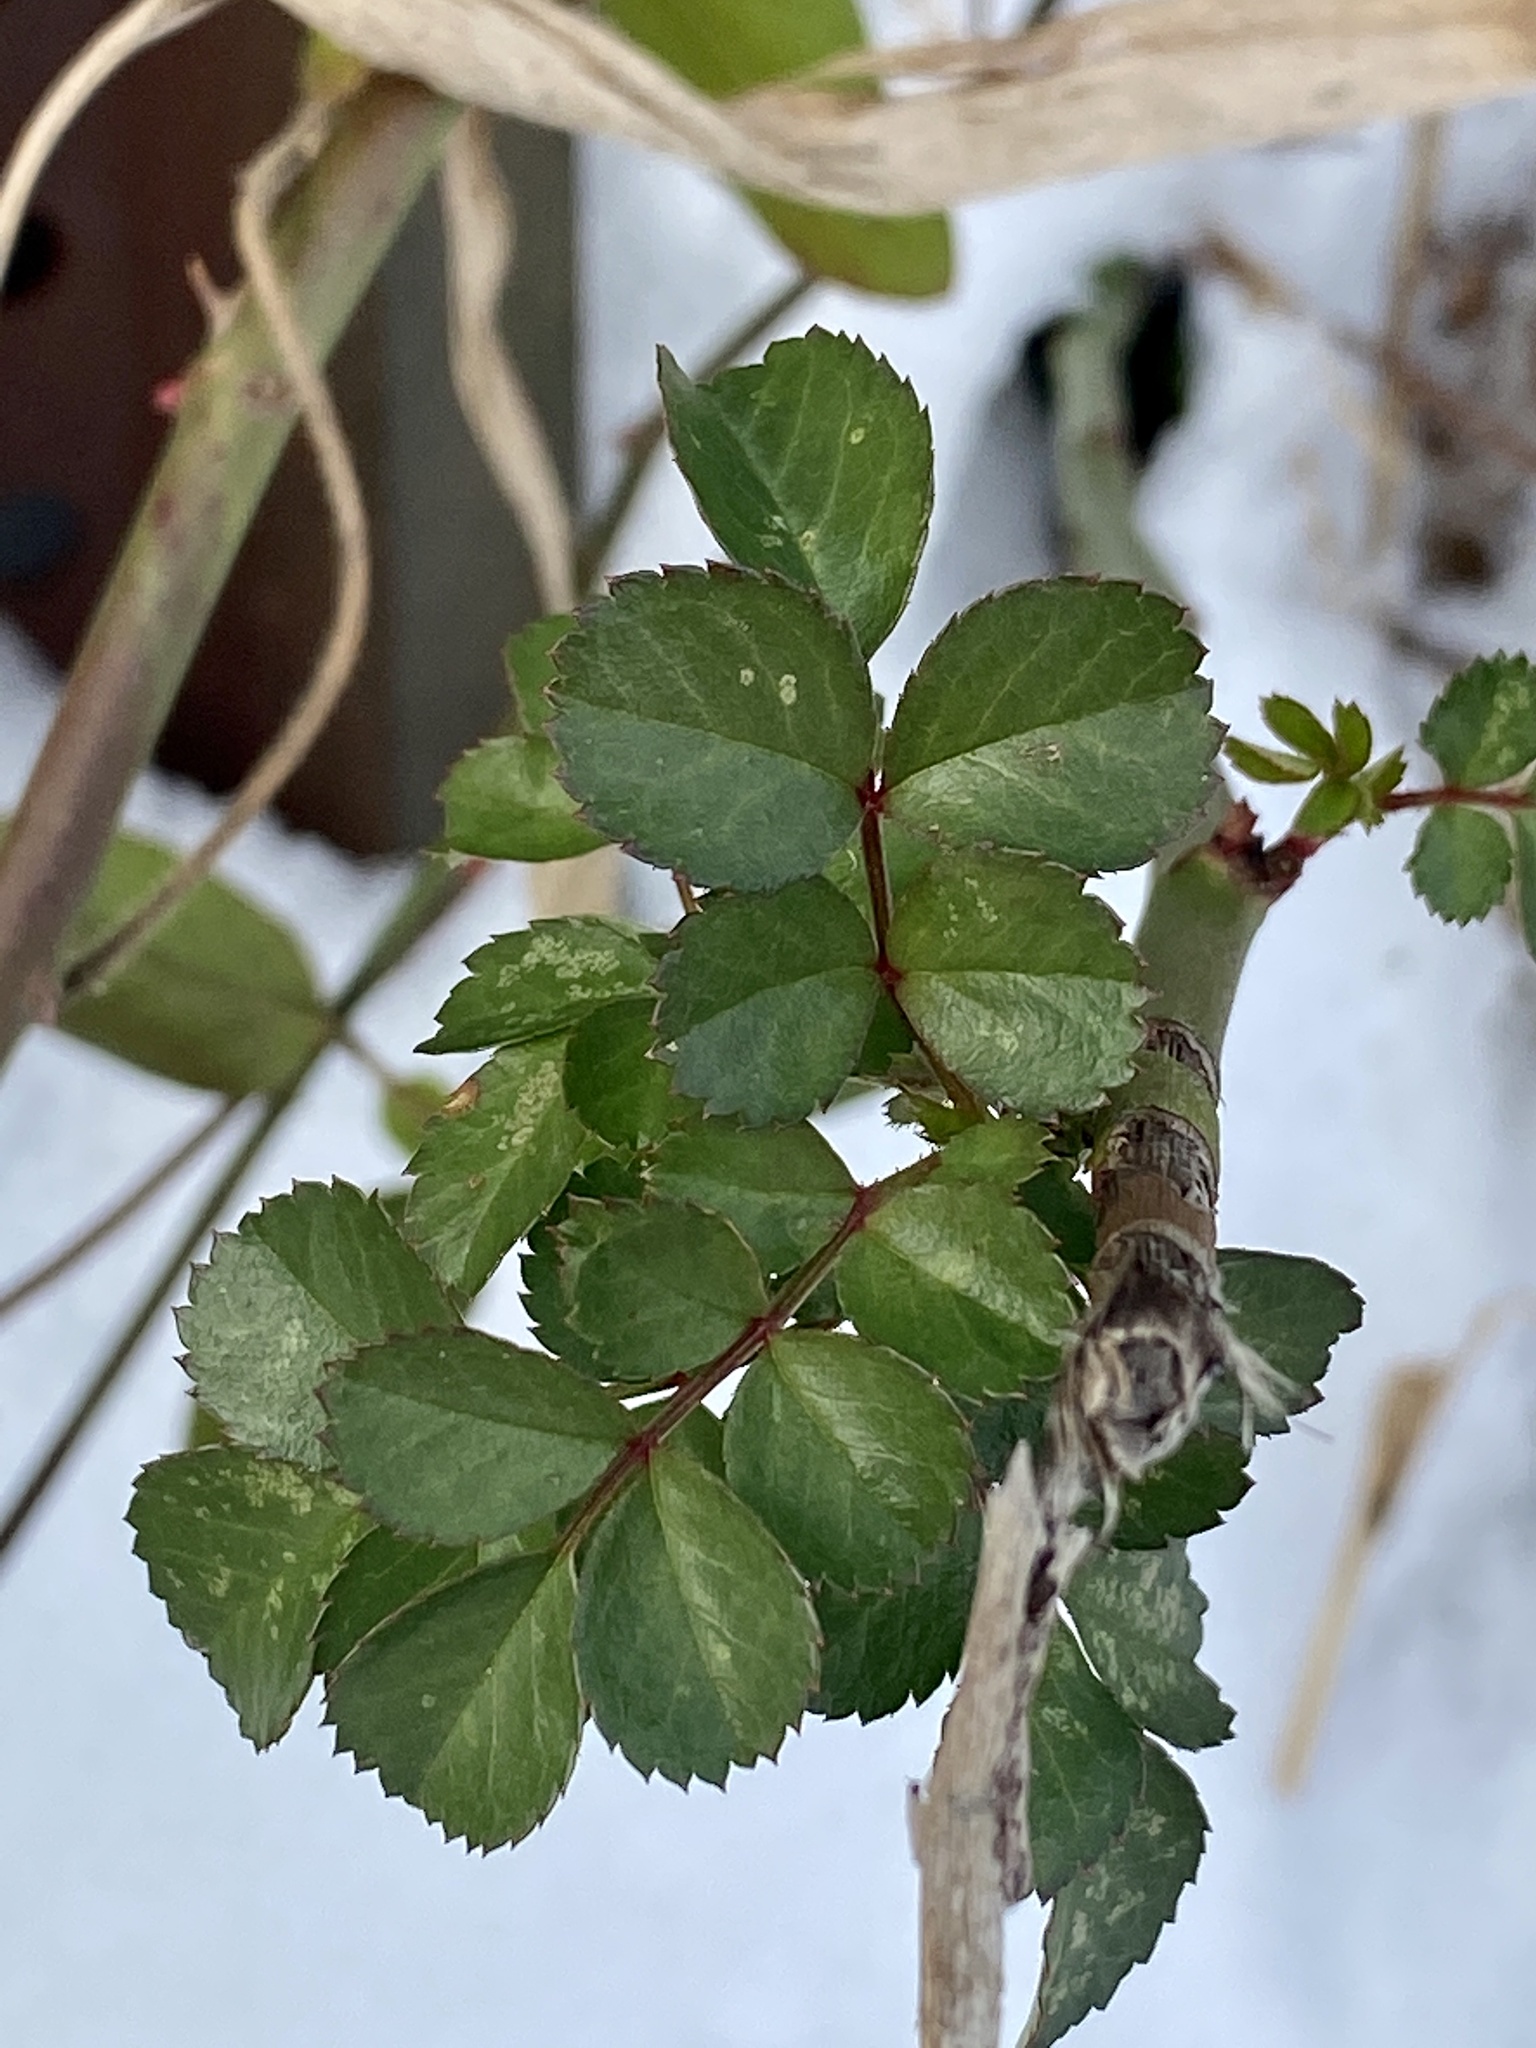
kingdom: Plantae
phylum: Tracheophyta
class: Magnoliopsida
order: Rosales
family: Rosaceae
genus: Rosa
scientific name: Rosa multiflora
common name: Multiflora rose
